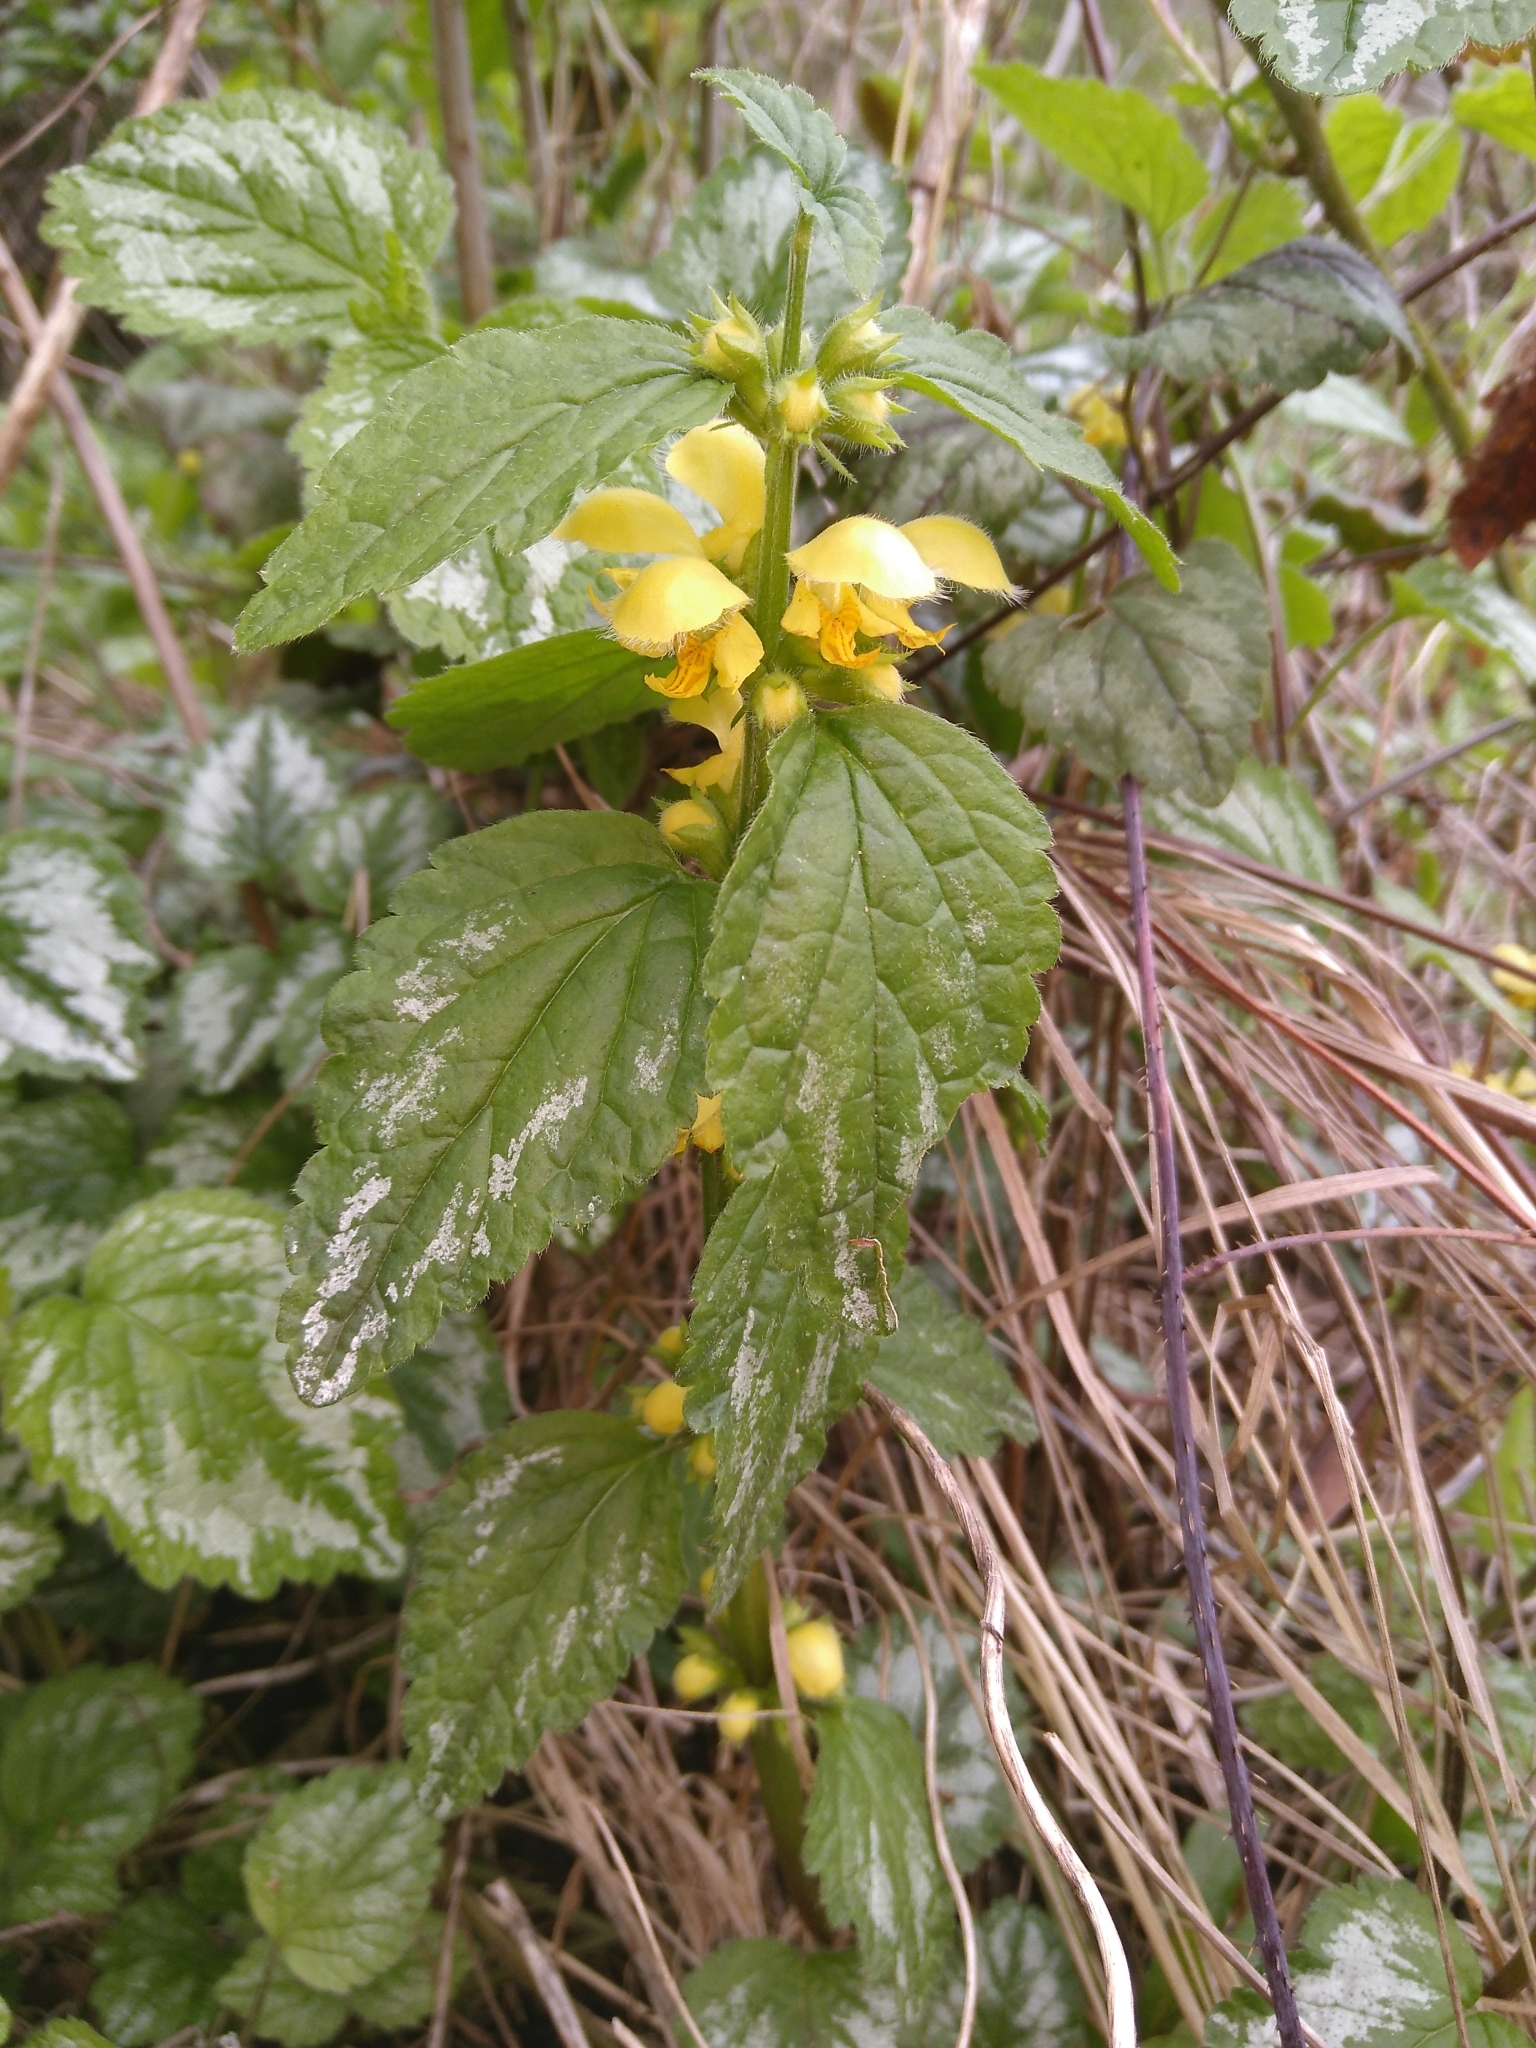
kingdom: Plantae
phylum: Tracheophyta
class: Magnoliopsida
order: Lamiales
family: Lamiaceae
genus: Lamium
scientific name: Lamium galeobdolon
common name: Yellow archangel
